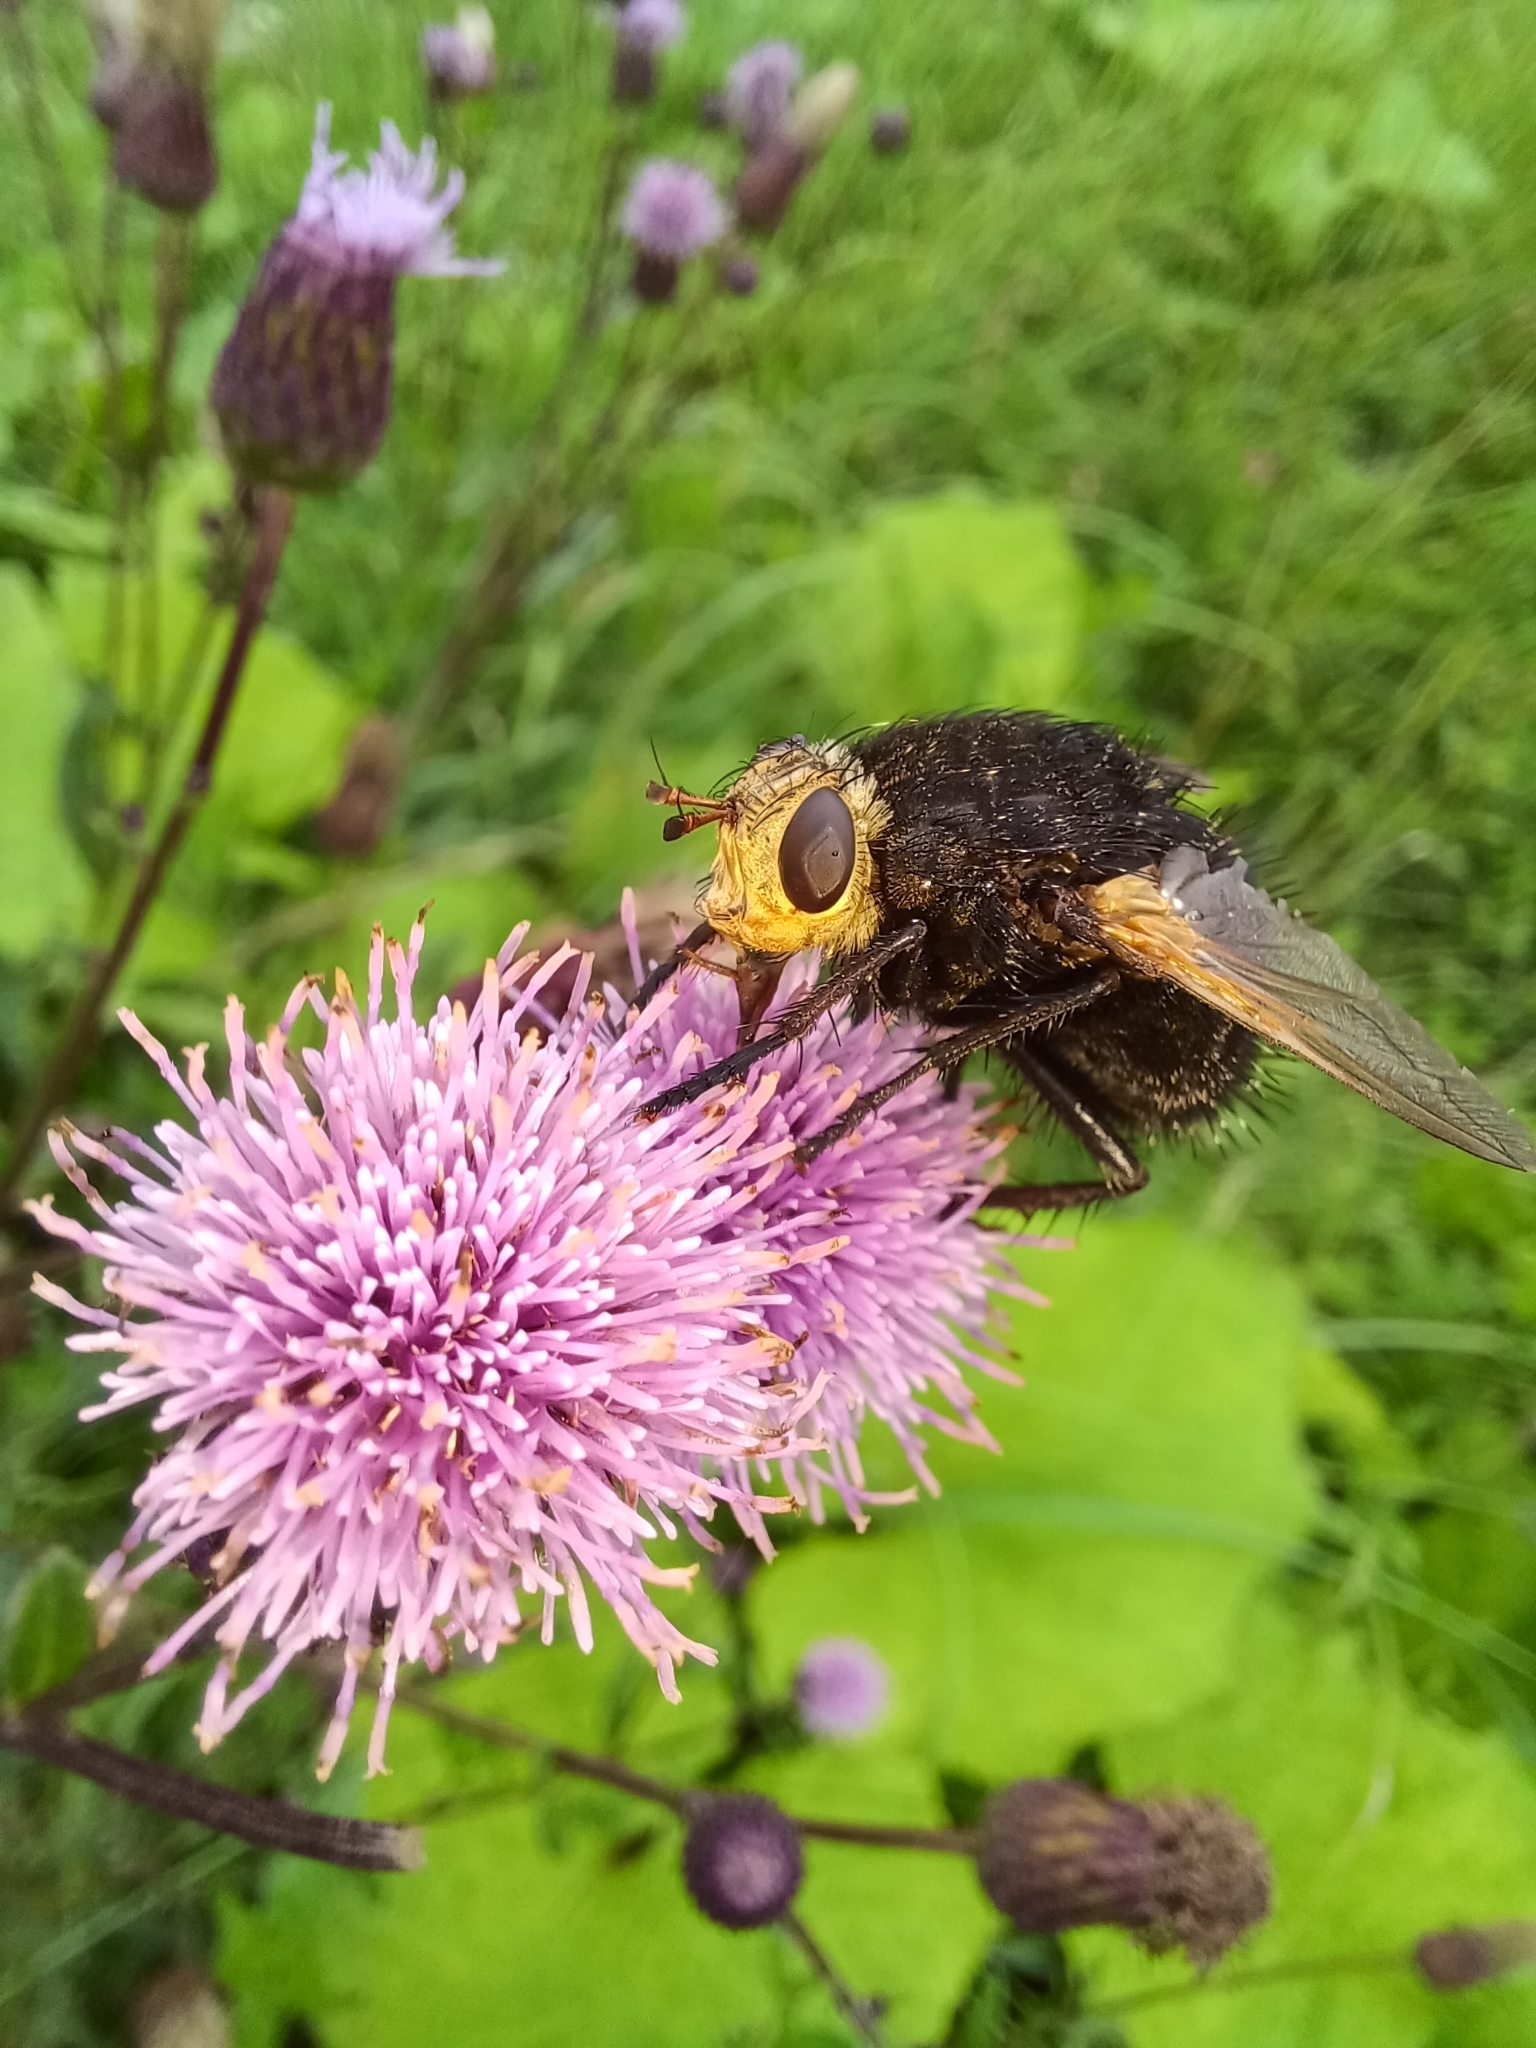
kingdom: Animalia
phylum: Arthropoda
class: Insecta
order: Diptera
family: Tachinidae
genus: Tachina
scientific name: Tachina grossa
